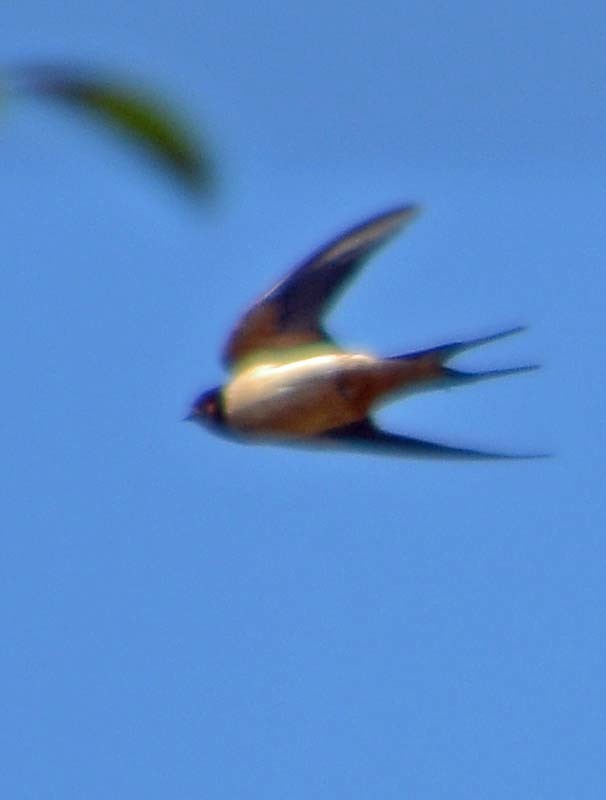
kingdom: Animalia
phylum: Chordata
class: Aves
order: Passeriformes
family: Hirundinidae
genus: Hirundo
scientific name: Hirundo rustica
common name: Barn swallow
